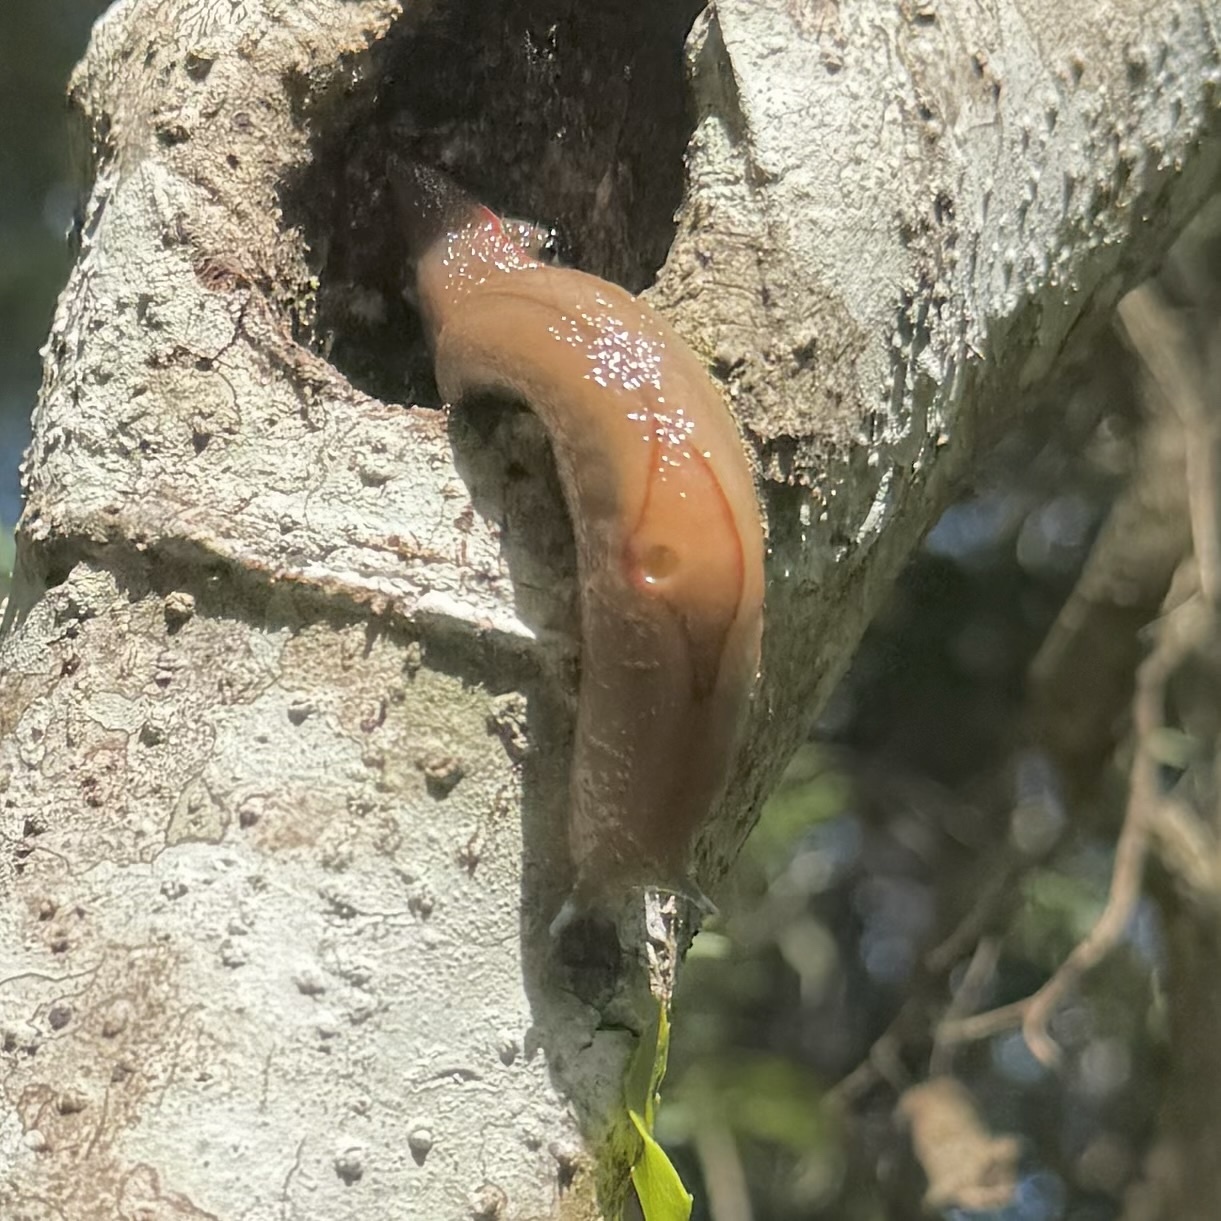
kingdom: Animalia
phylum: Mollusca
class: Gastropoda
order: Stylommatophora
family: Athoracophoridae
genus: Triboniophorus
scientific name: Triboniophorus graeffei
